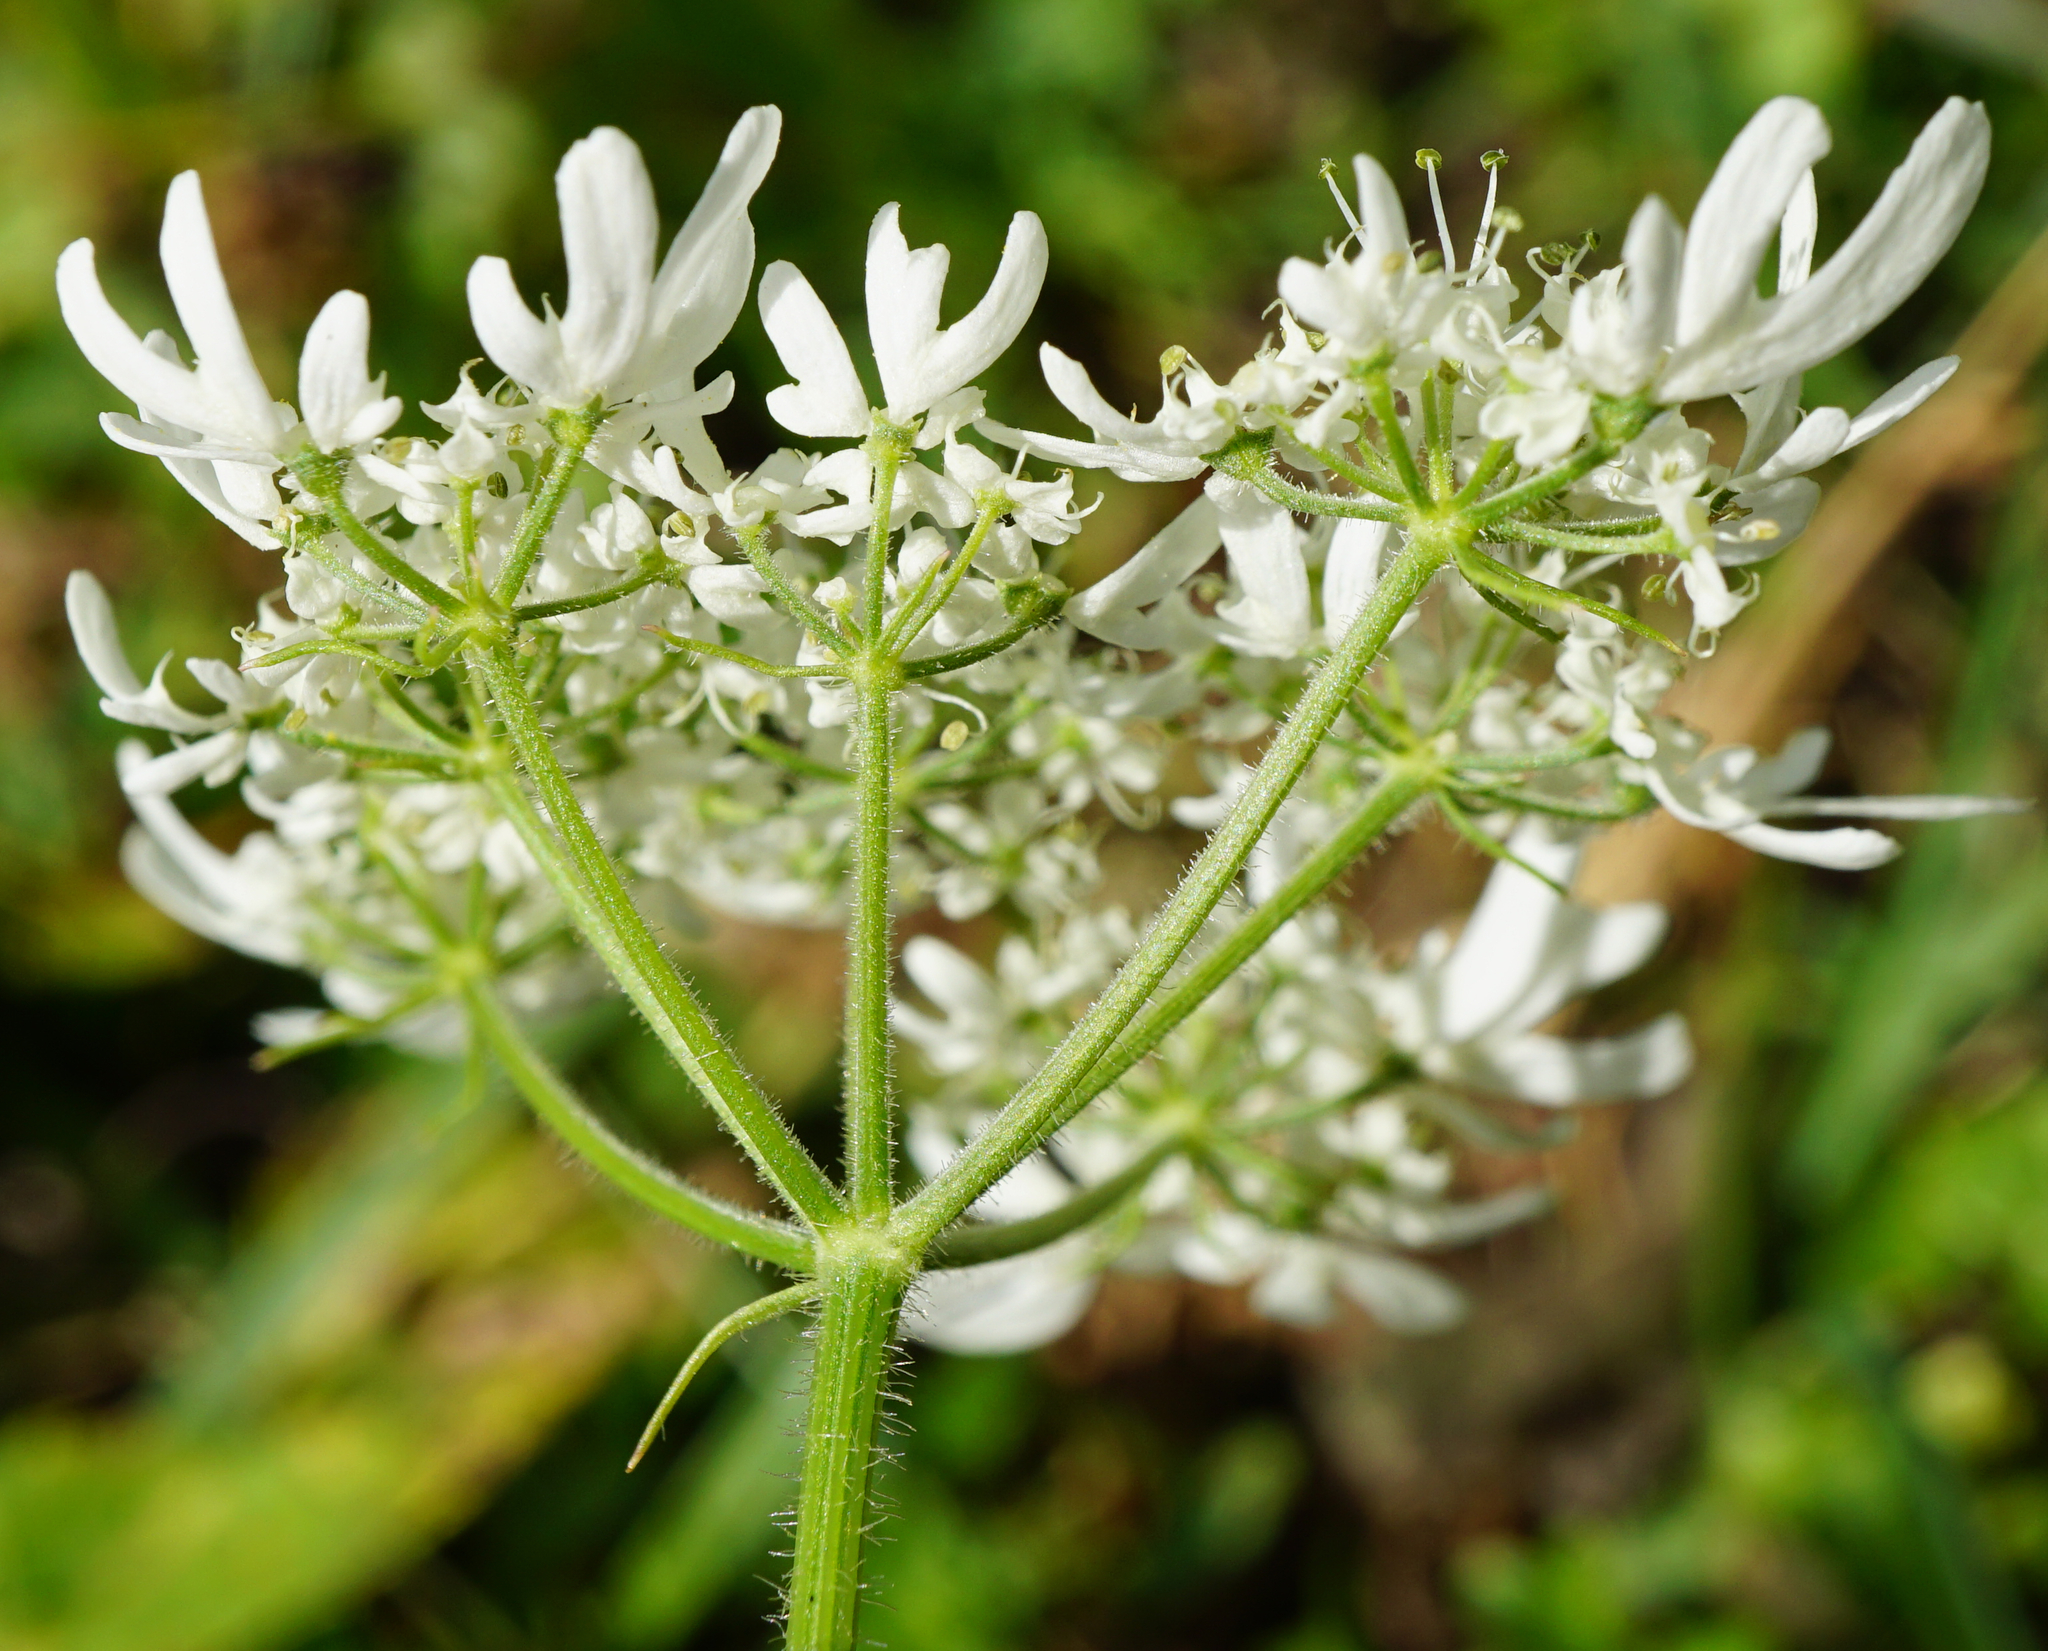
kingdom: Plantae
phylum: Tracheophyta
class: Magnoliopsida
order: Apiales
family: Apiaceae
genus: Heracleum
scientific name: Heracleum austriacum
